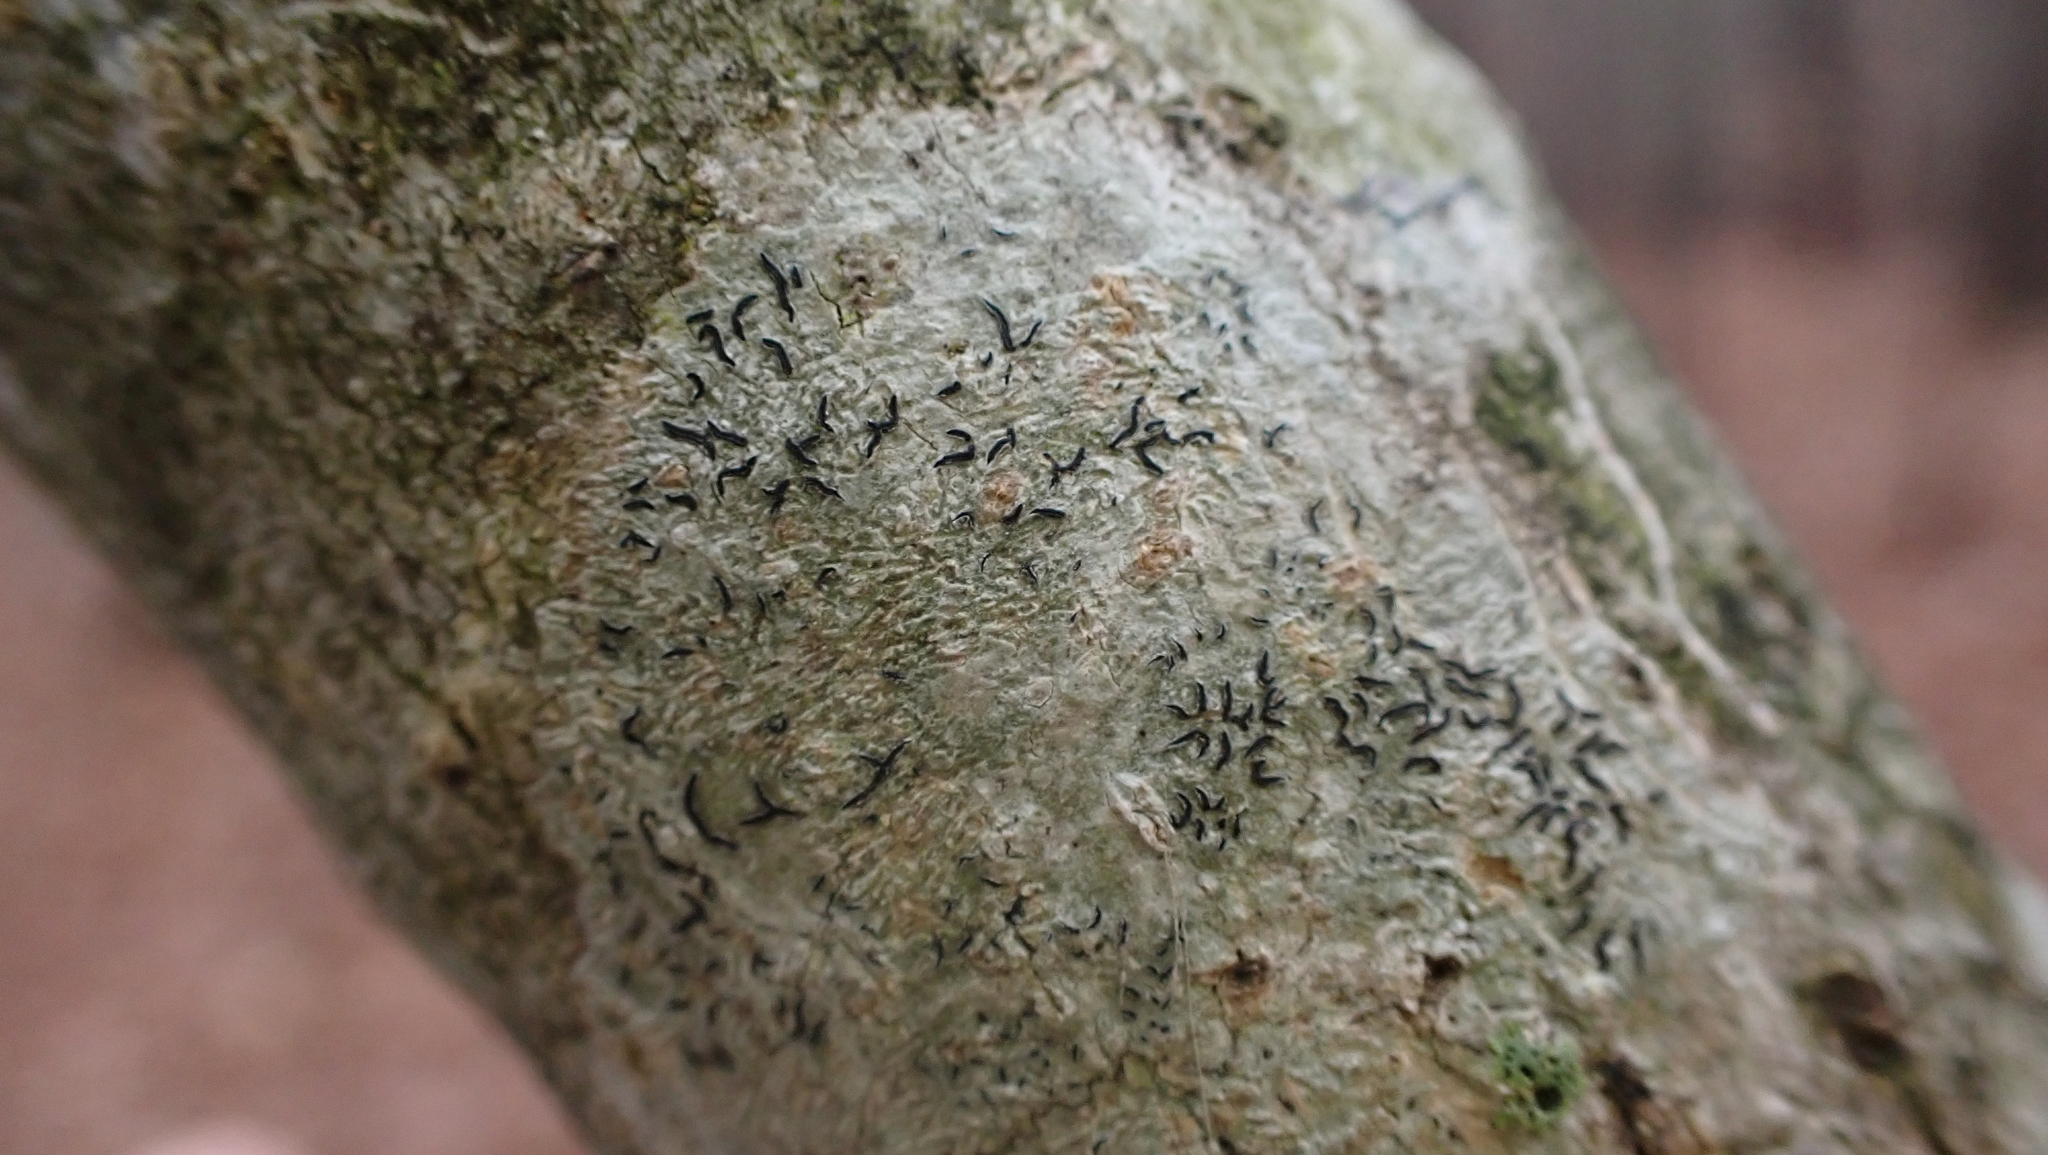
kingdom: Fungi
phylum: Ascomycota
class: Lecanoromycetes
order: Ostropales
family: Graphidaceae
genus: Graphis
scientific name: Graphis scripta
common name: Script lichen
